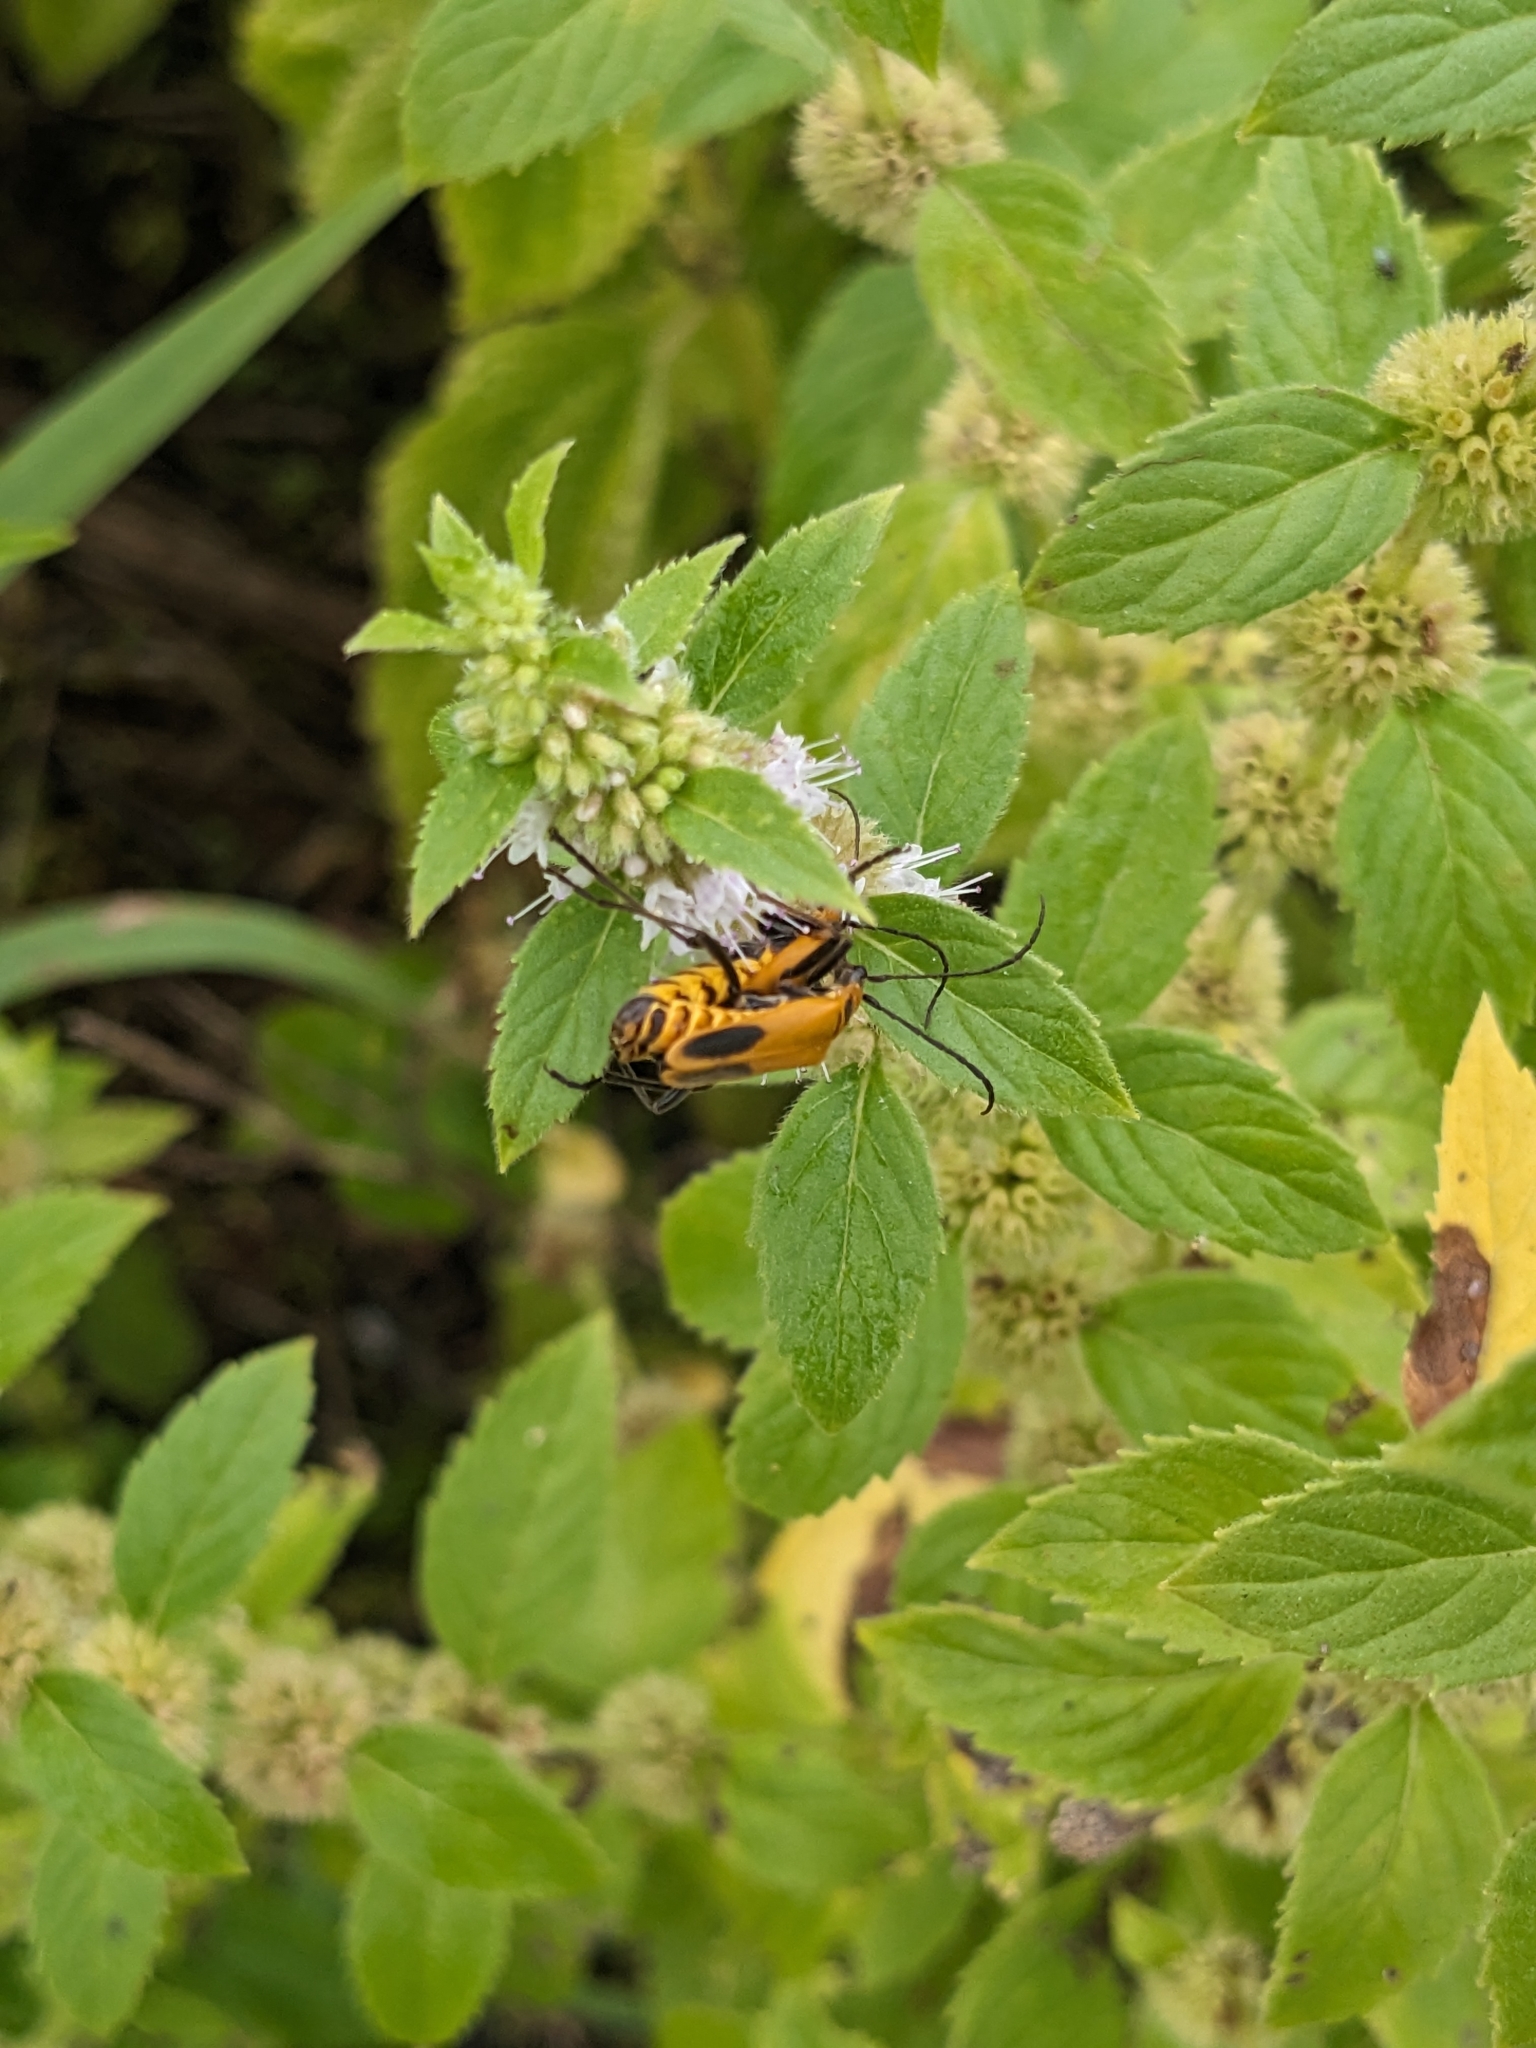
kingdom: Animalia
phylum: Arthropoda
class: Insecta
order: Coleoptera
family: Cantharidae
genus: Chauliognathus
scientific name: Chauliognathus pensylvanicus
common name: Goldenrod soldier beetle
